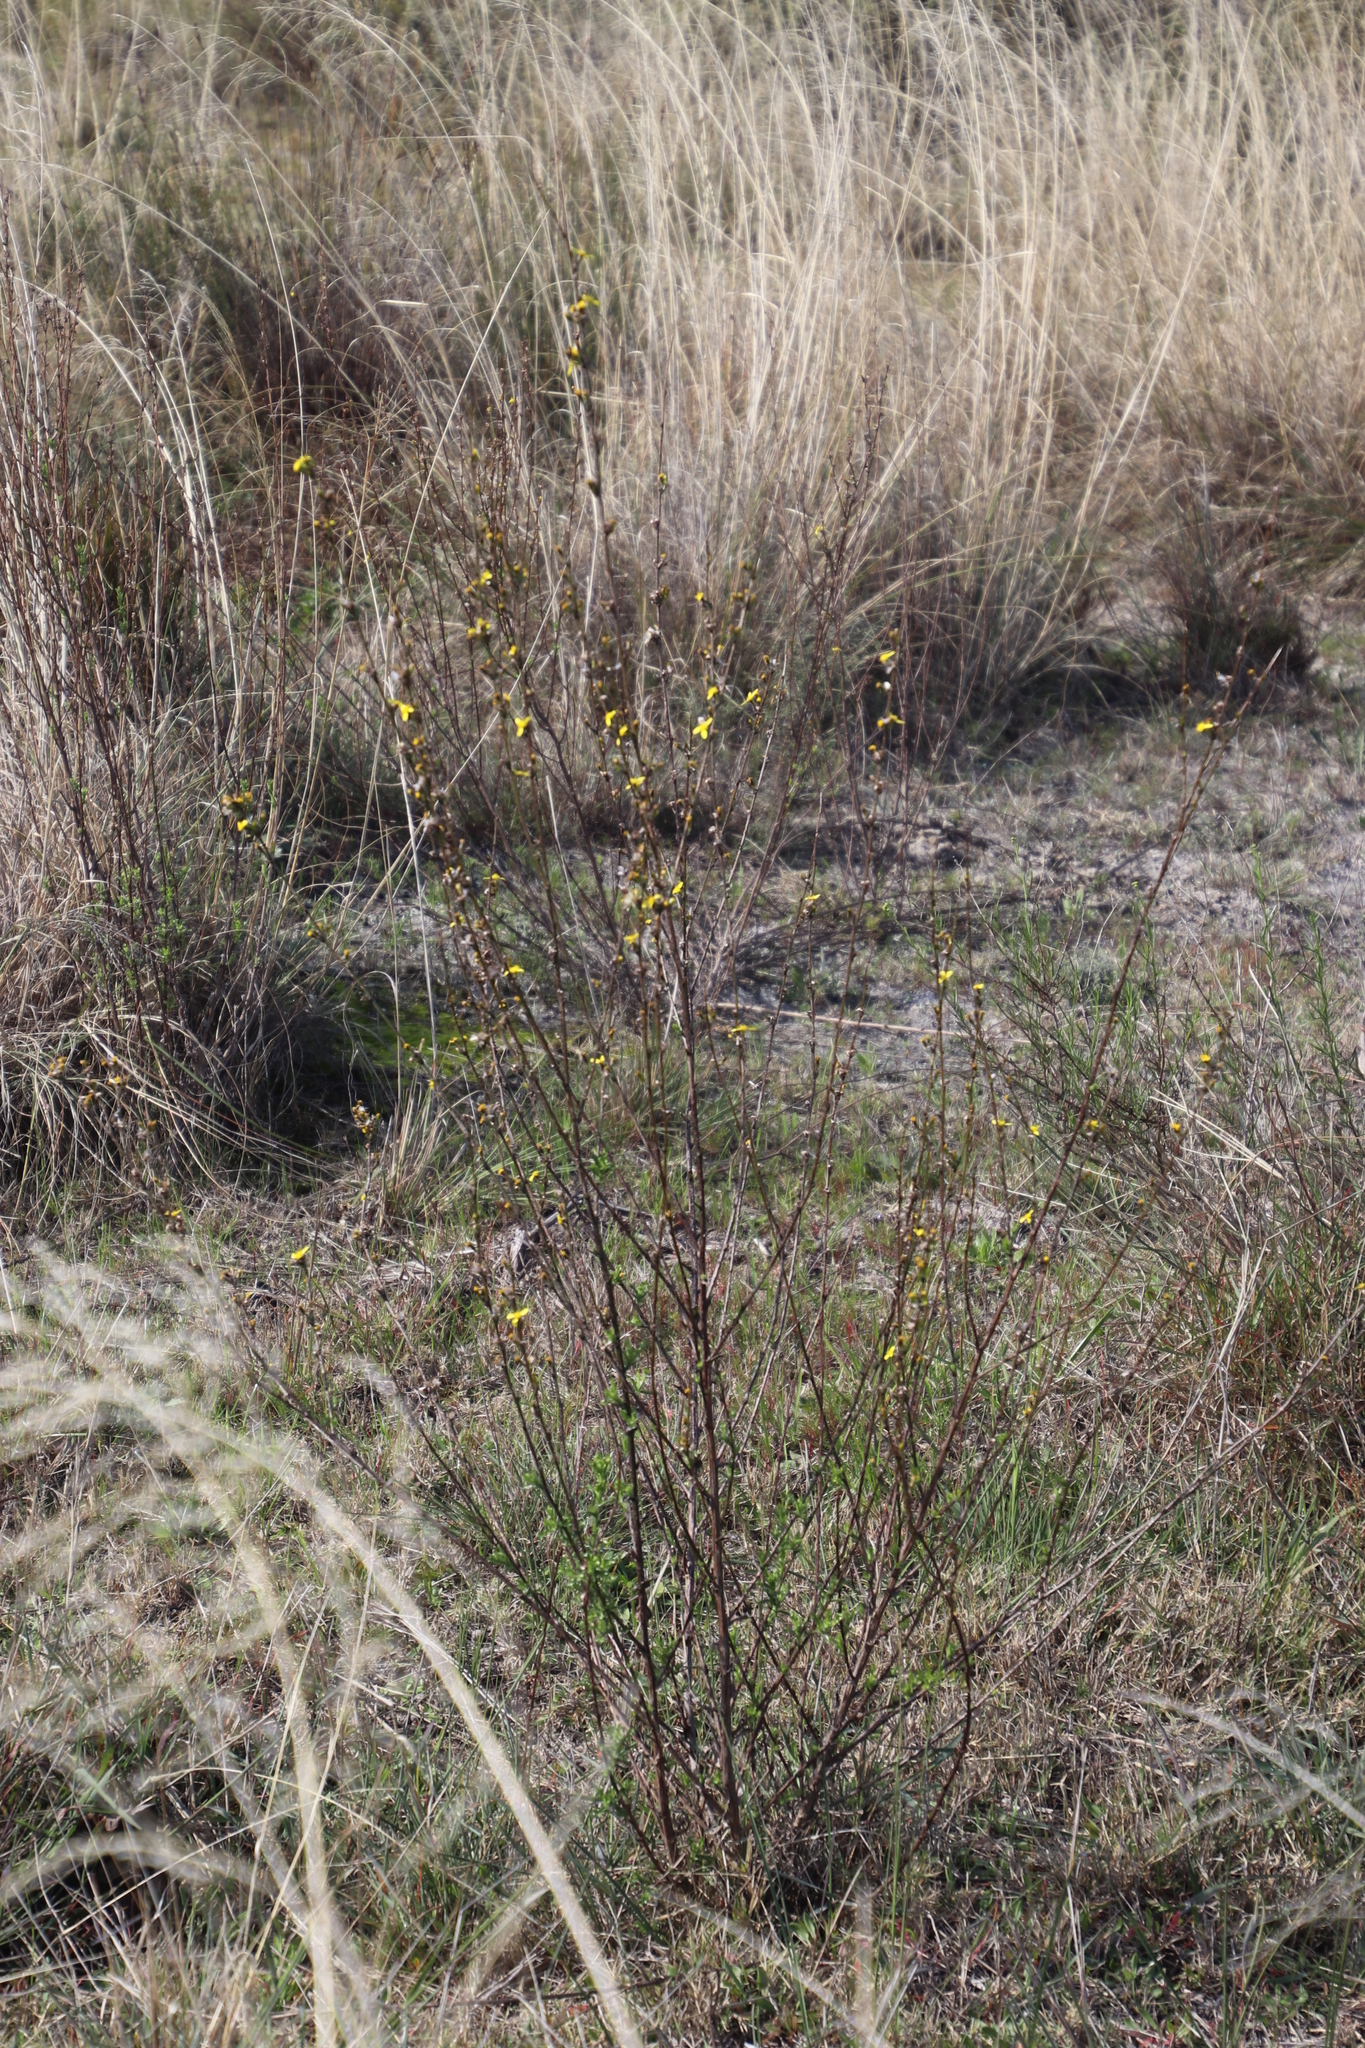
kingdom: Plantae
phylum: Tracheophyta
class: Magnoliopsida
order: Asterales
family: Asteraceae
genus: Senecio
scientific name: Senecio pubigerus
